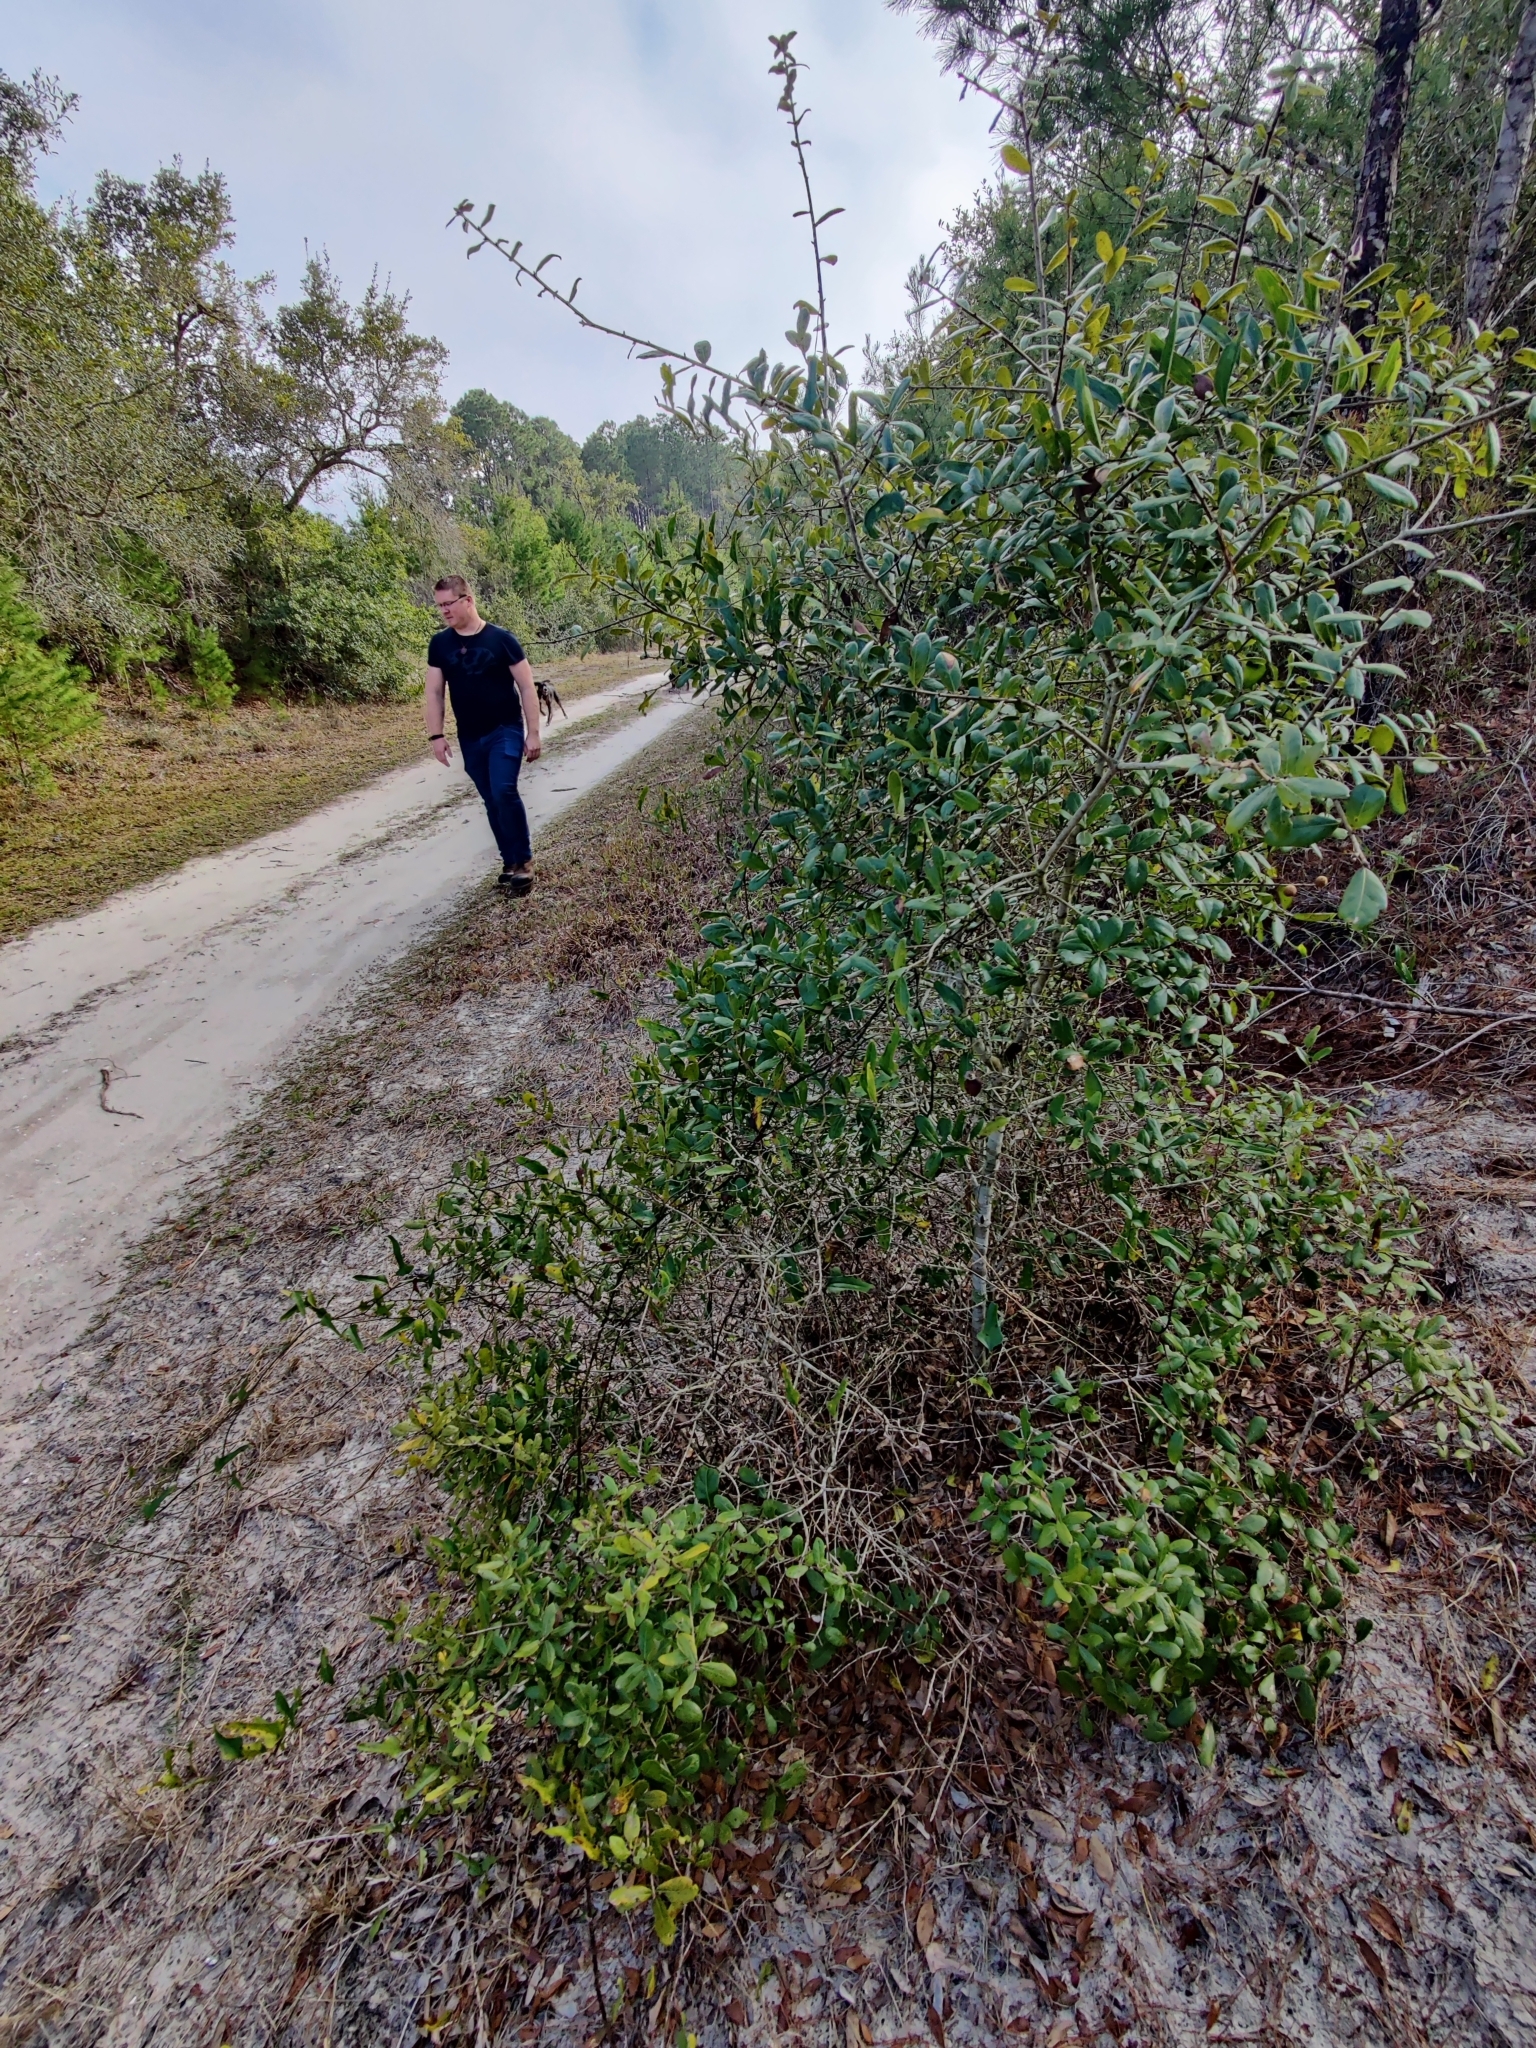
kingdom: Plantae
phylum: Tracheophyta
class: Magnoliopsida
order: Fagales
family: Fagaceae
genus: Quercus
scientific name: Quercus myrtifolia
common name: Myrtle oak
